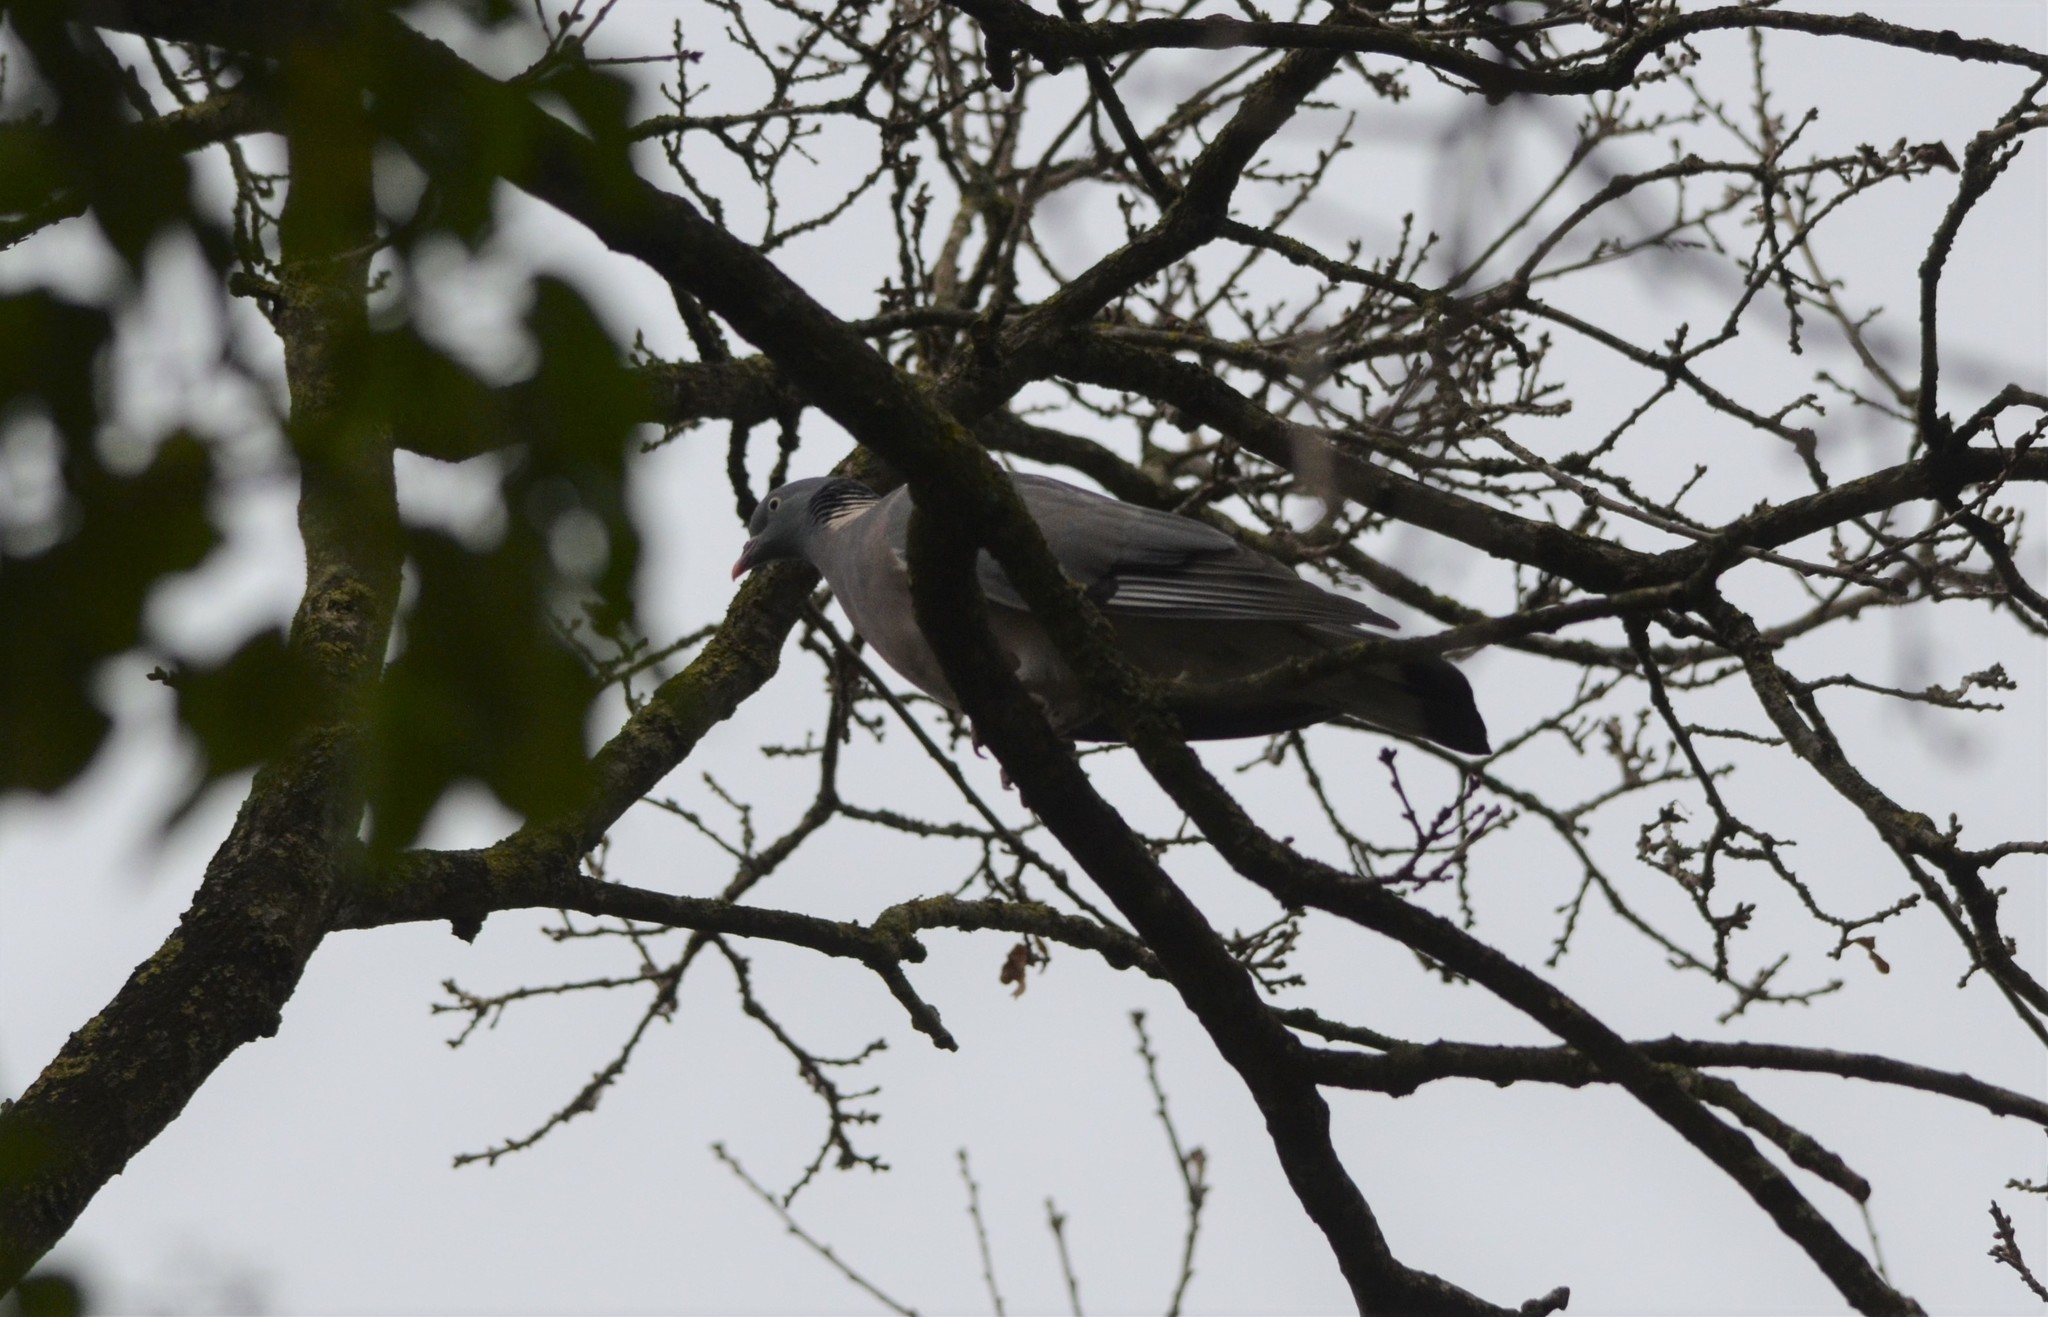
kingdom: Animalia
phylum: Chordata
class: Aves
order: Columbiformes
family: Columbidae
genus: Columba
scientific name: Columba palumbus
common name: Common wood pigeon
